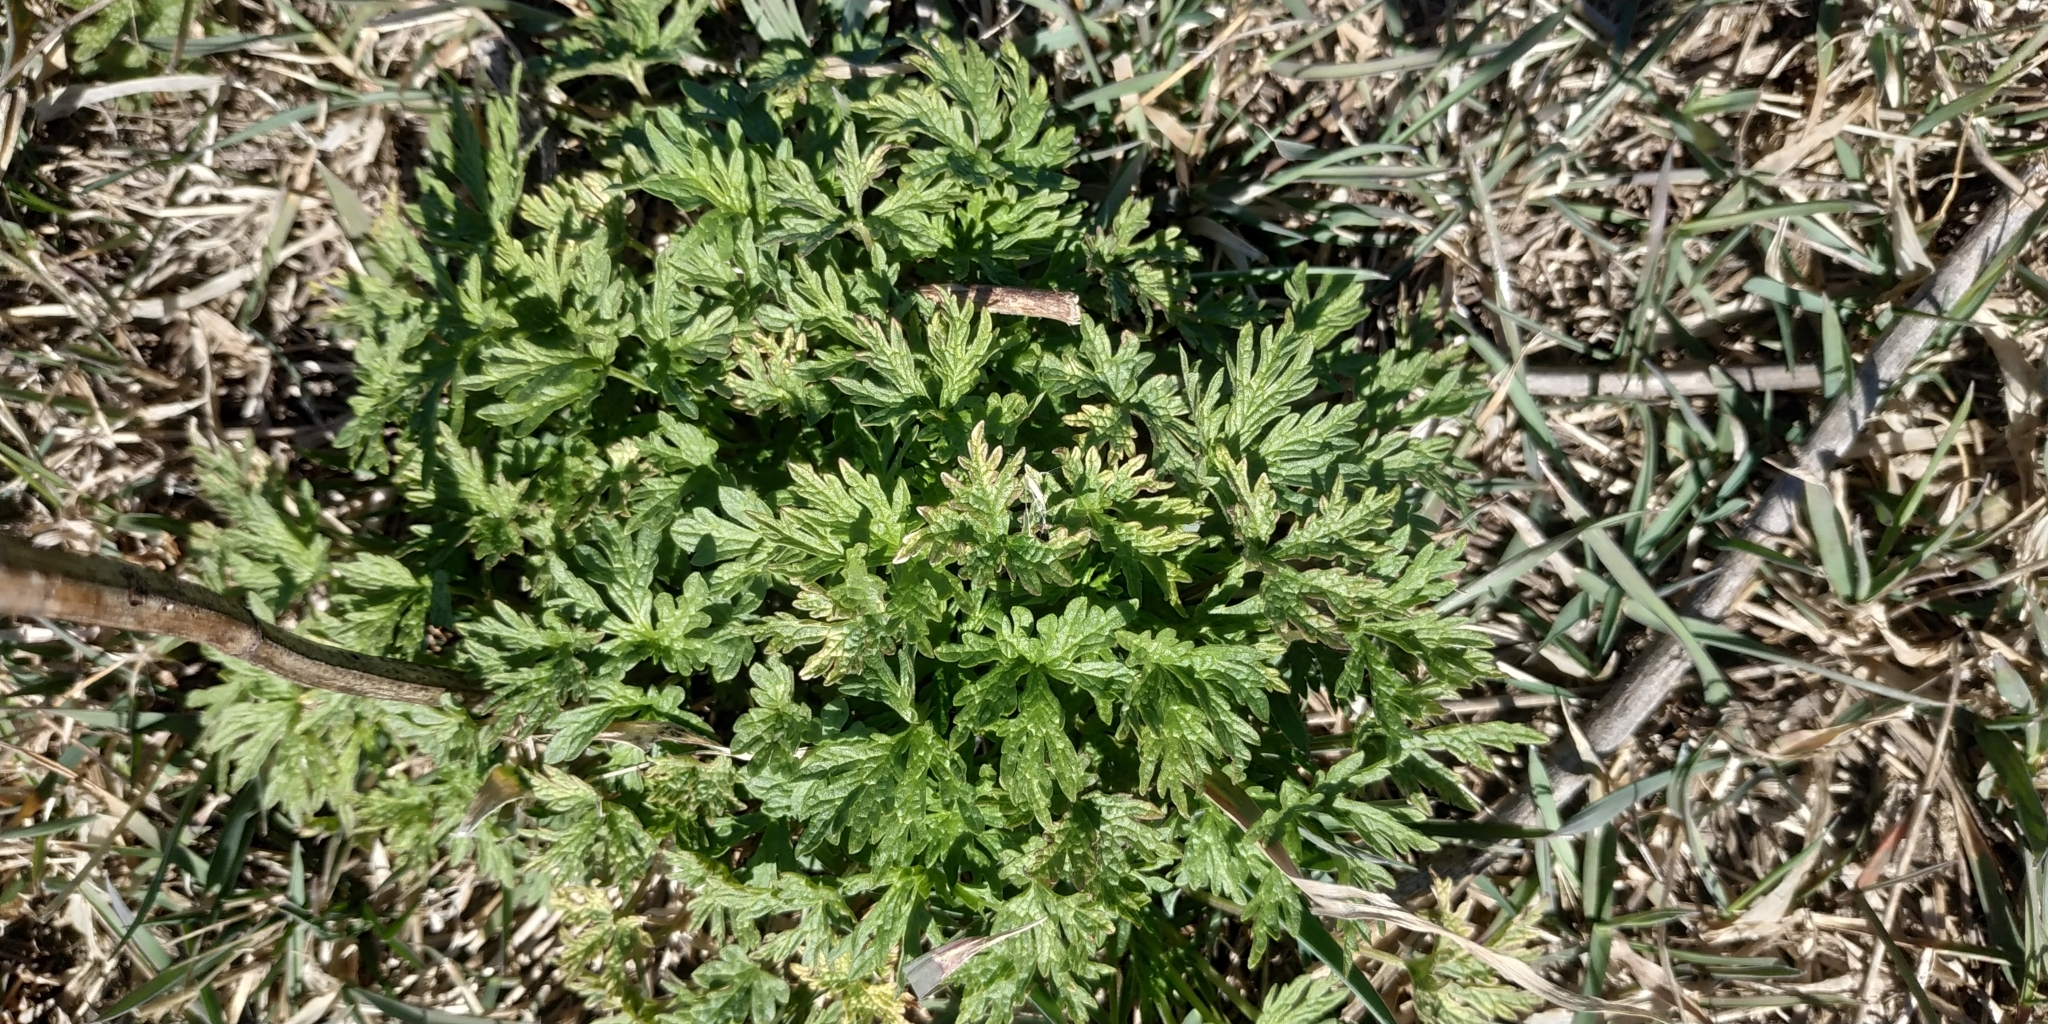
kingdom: Plantae
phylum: Tracheophyta
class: Magnoliopsida
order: Lamiales
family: Lamiaceae
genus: Leonurus
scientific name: Leonurus quinquelobatus
